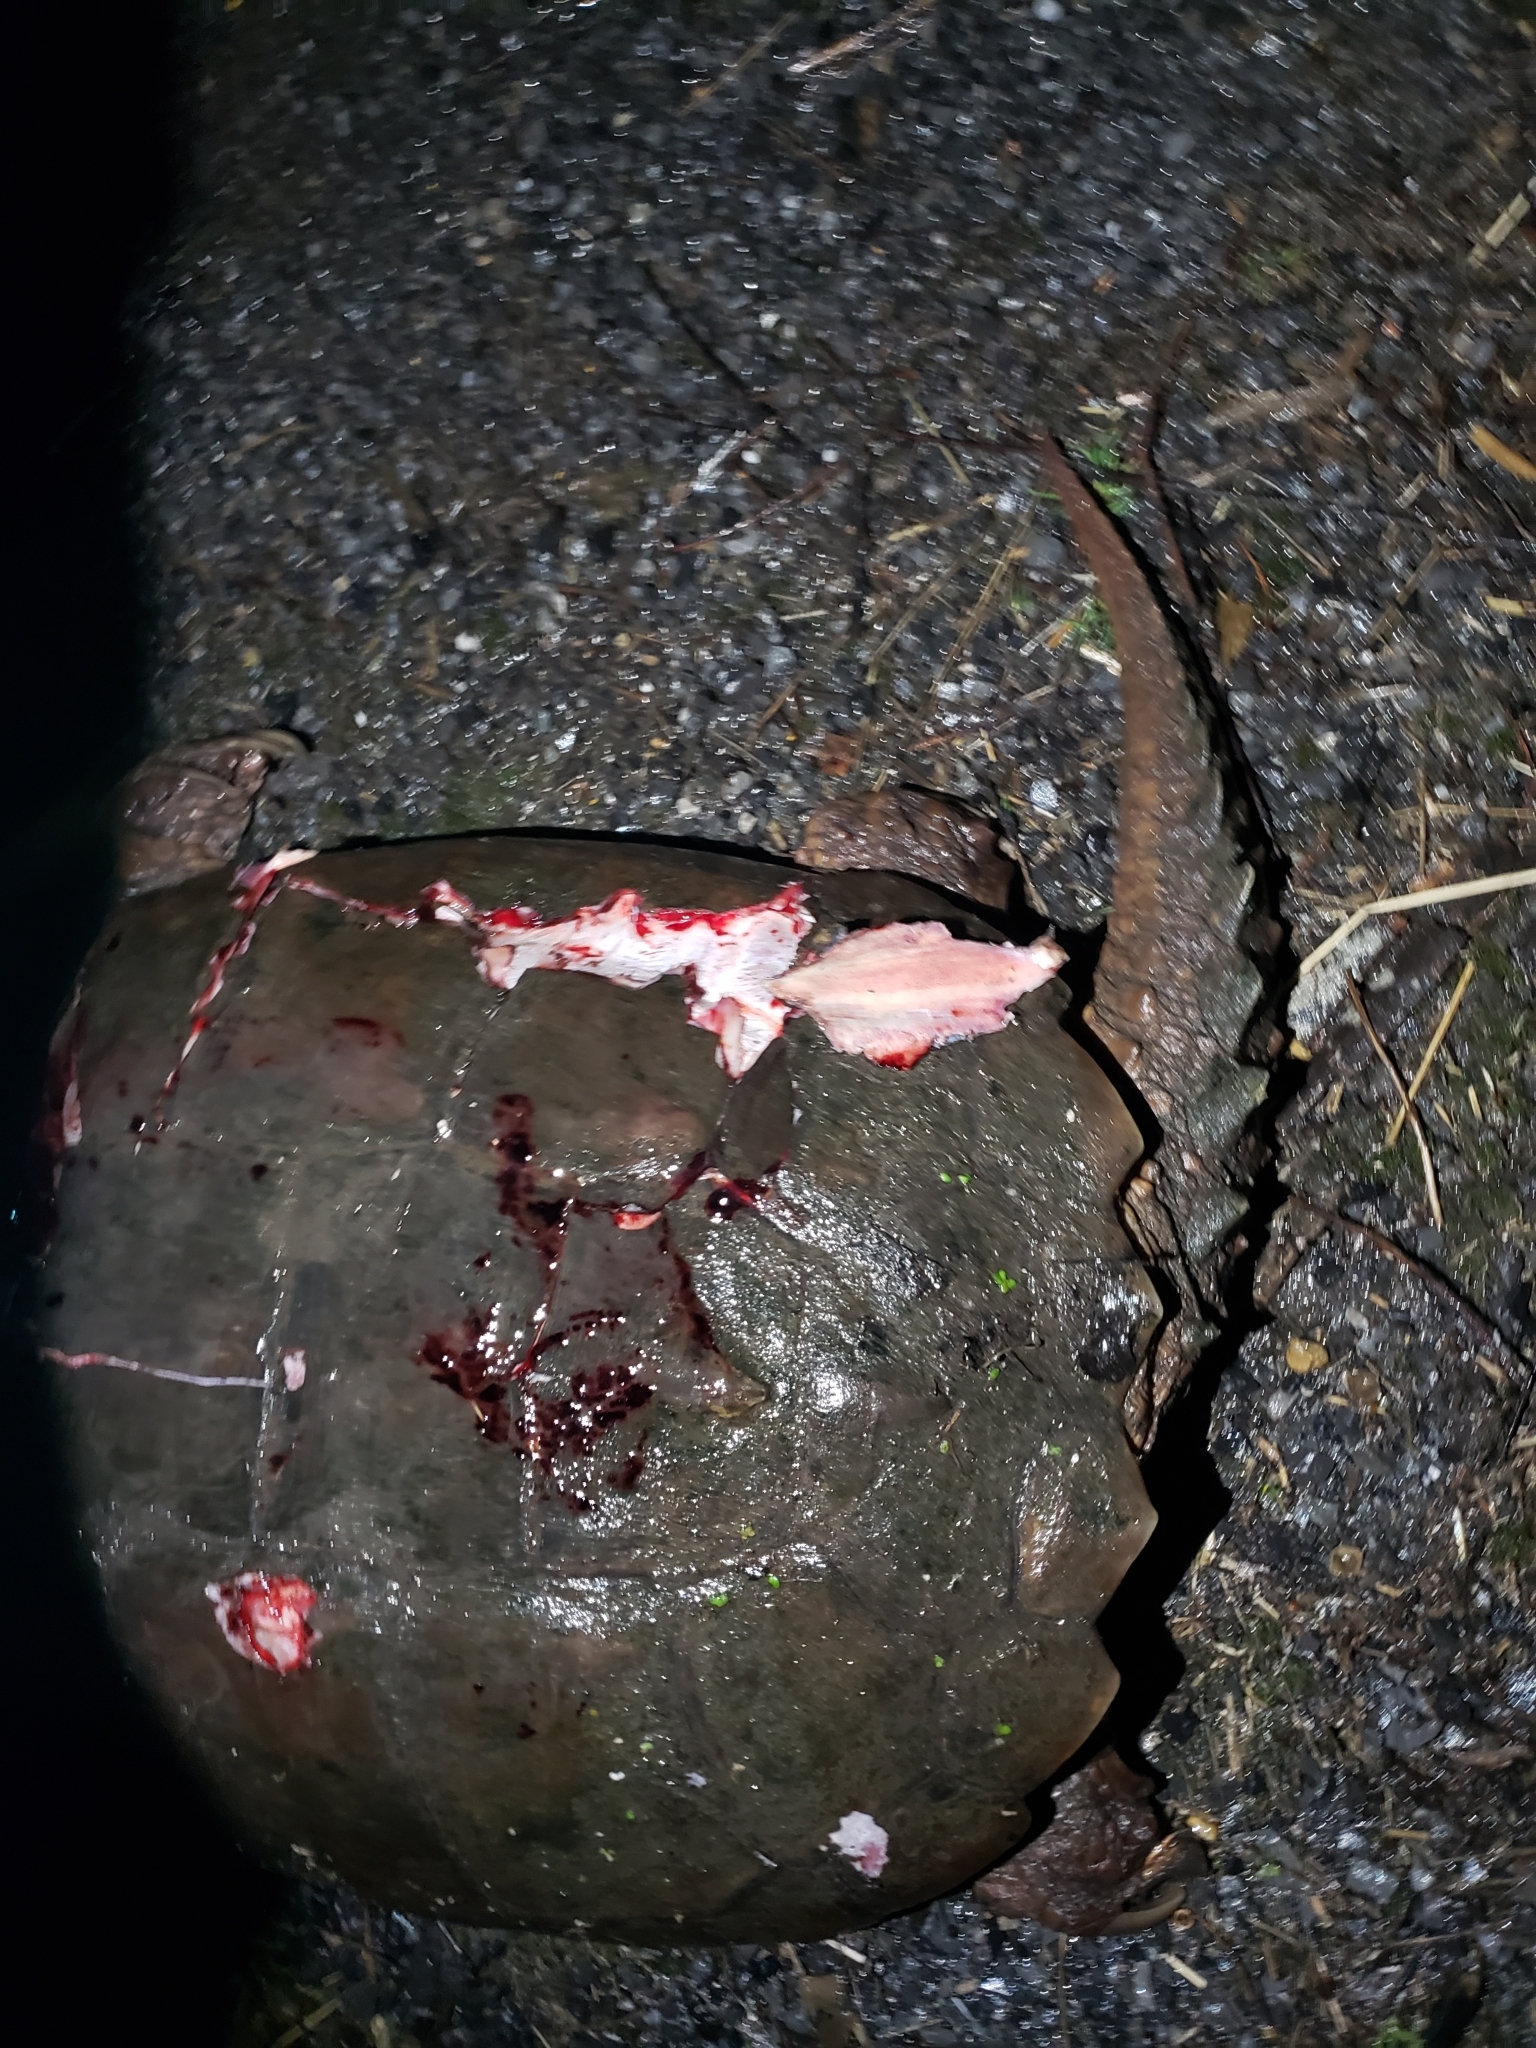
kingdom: Animalia
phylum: Chordata
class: Testudines
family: Chelydridae
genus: Chelydra
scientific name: Chelydra serpentina
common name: Common snapping turtle
